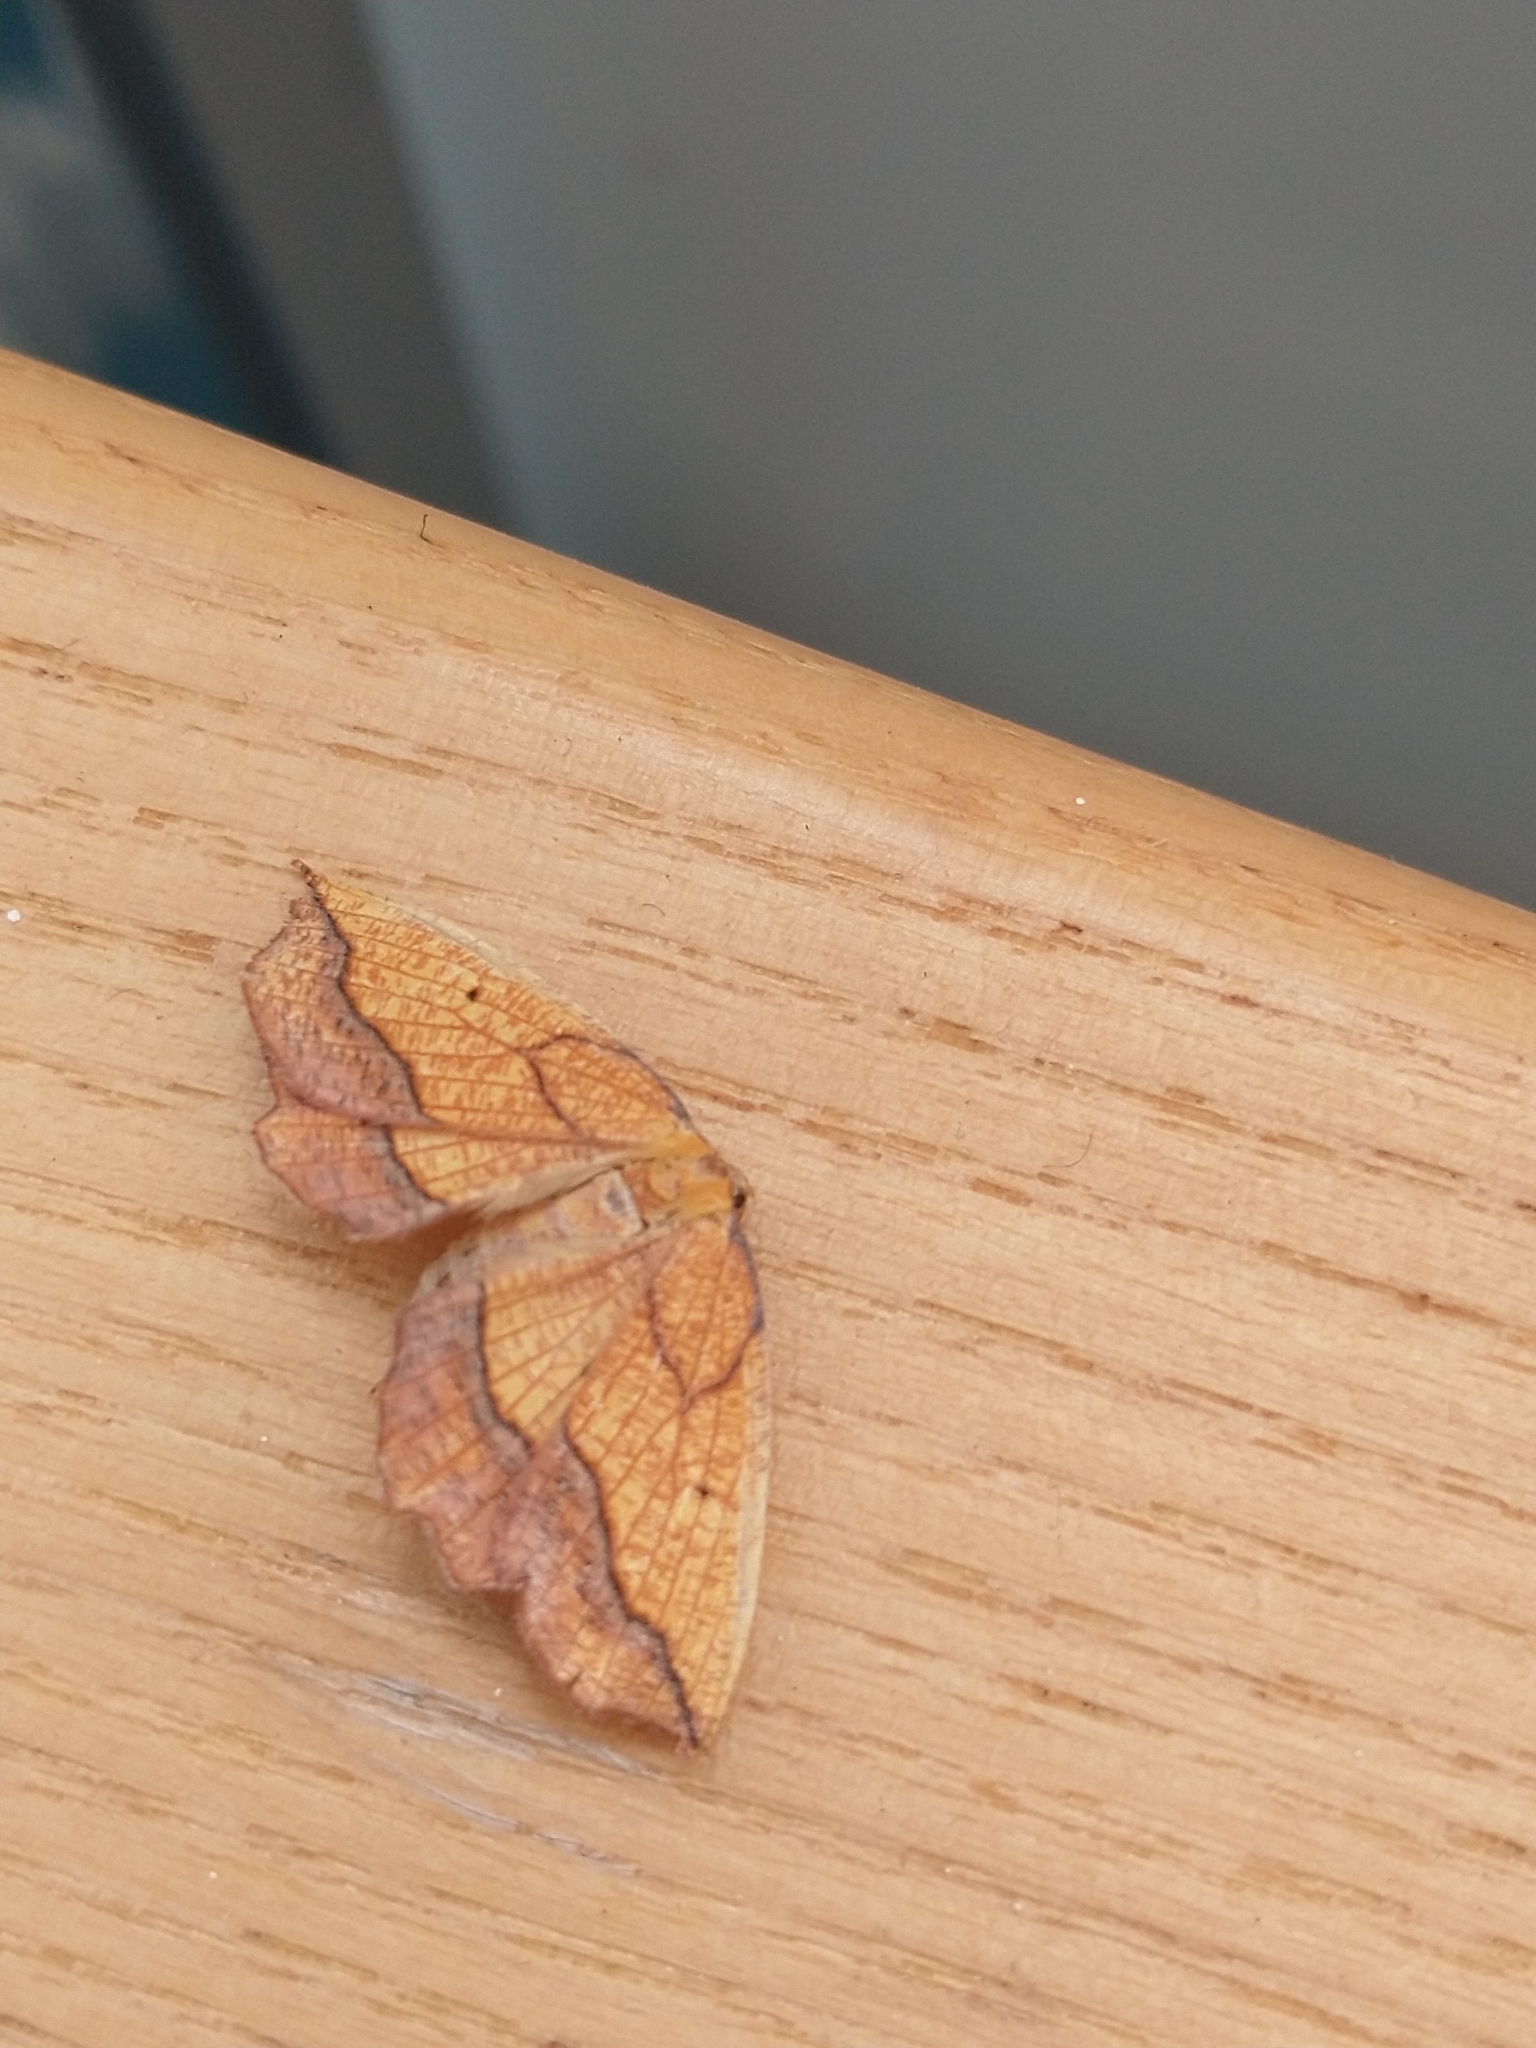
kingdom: Animalia
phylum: Arthropoda
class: Insecta
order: Lepidoptera
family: Geometridae
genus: Epione
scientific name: Epione repandaria
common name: Bordered beauty
